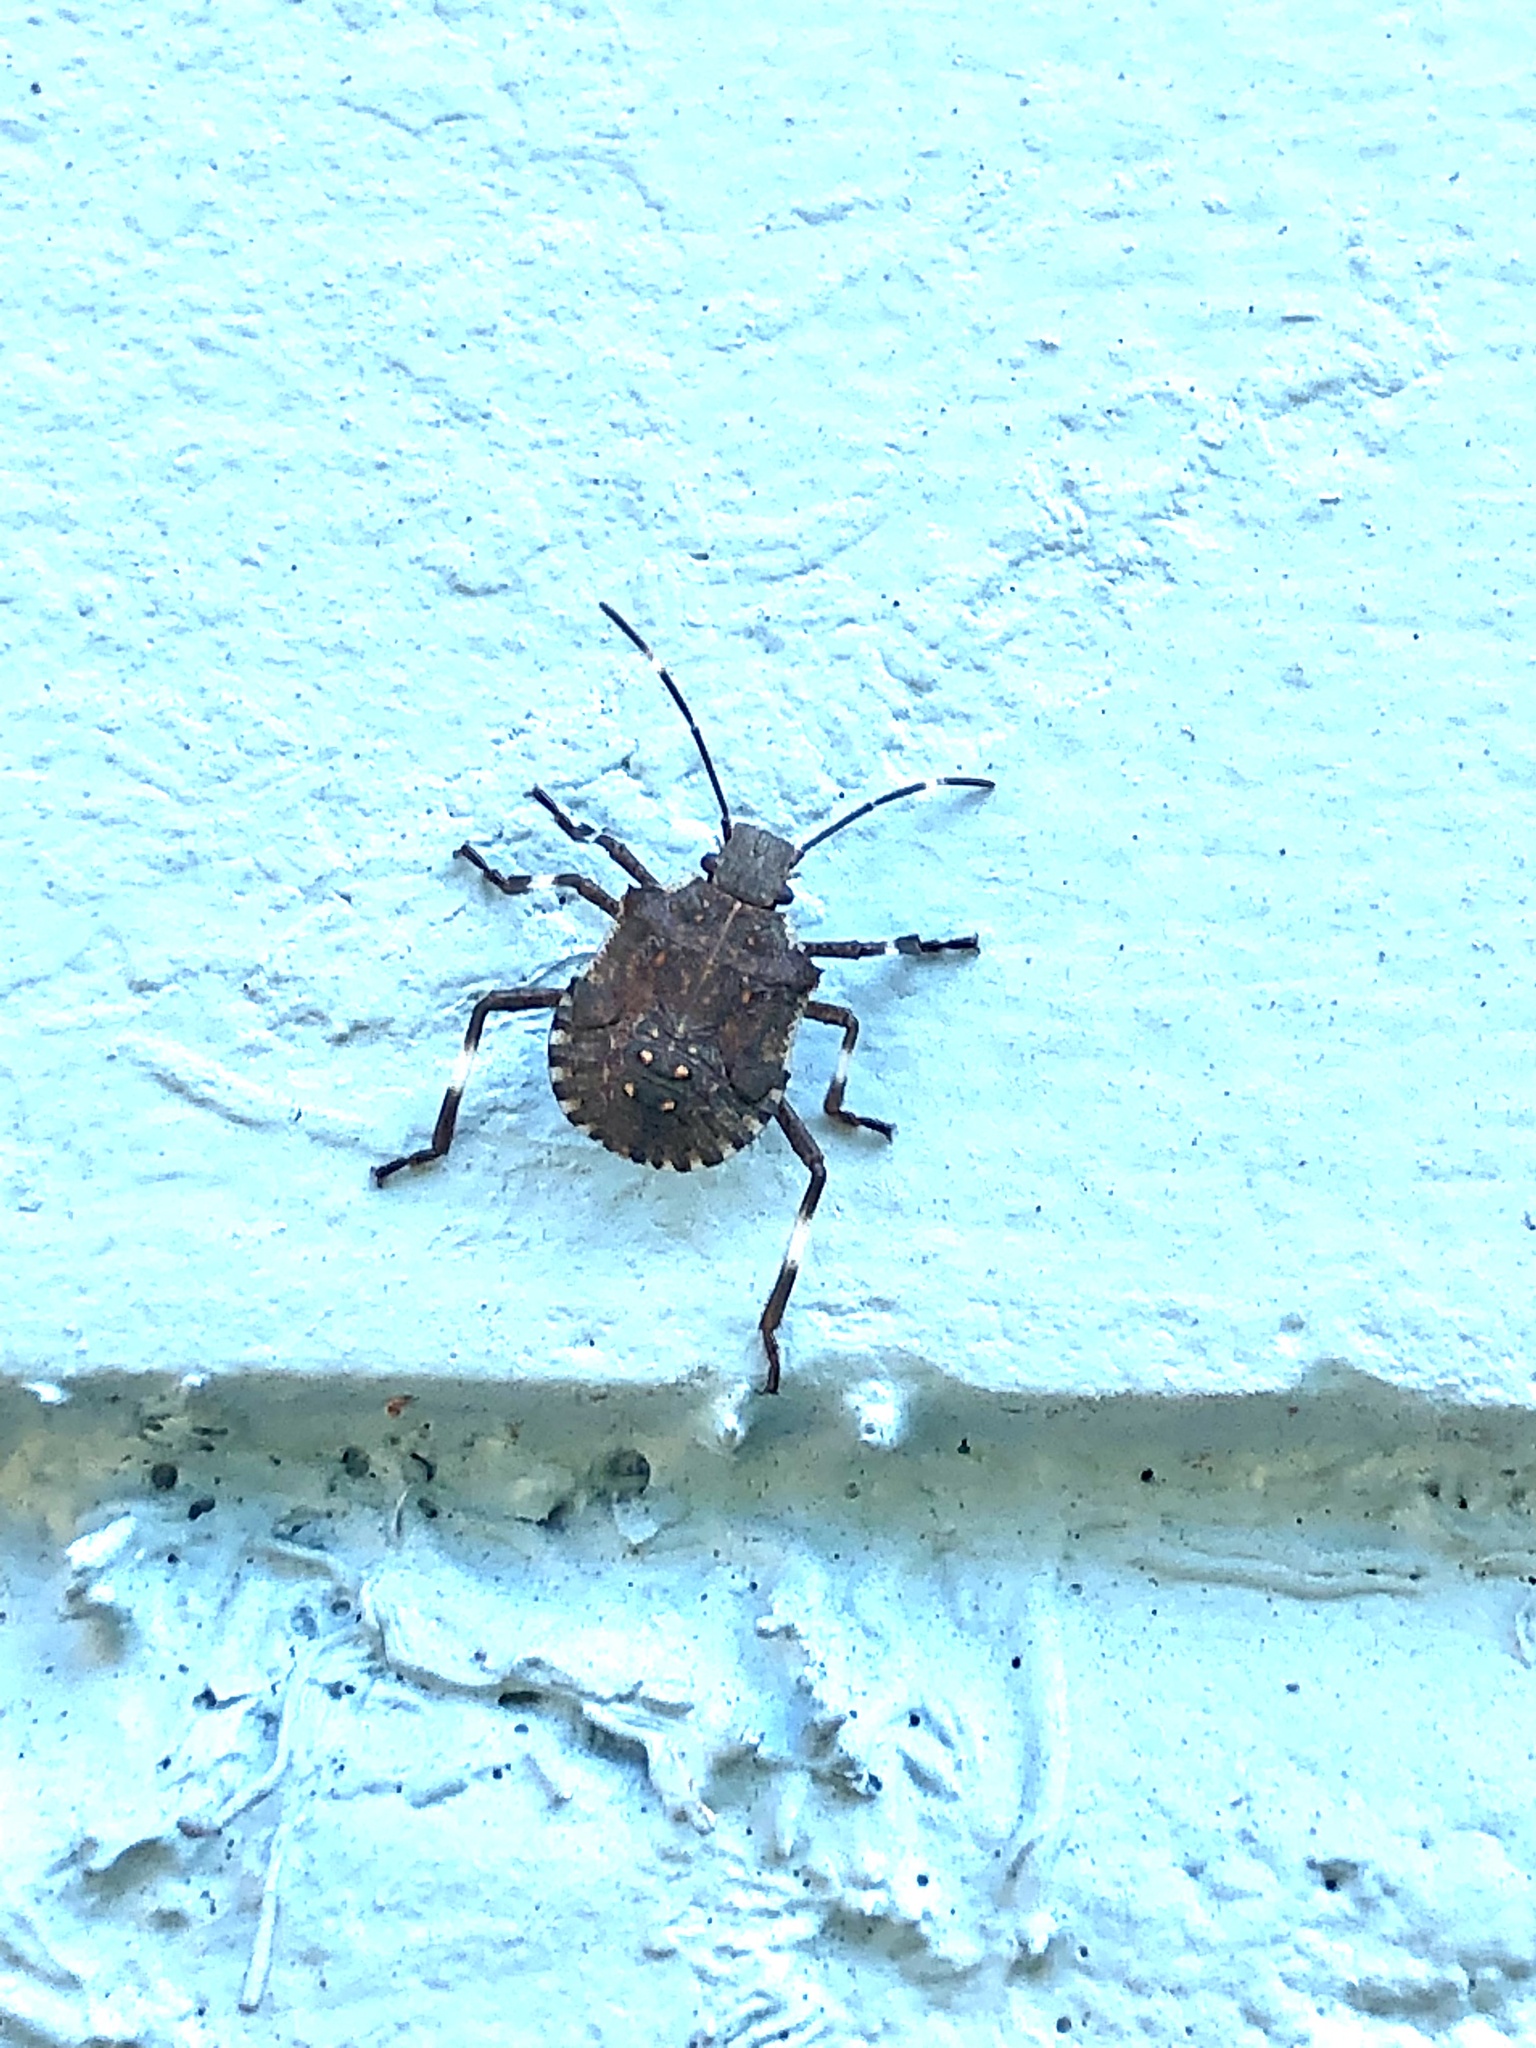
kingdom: Animalia
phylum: Arthropoda
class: Insecta
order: Hemiptera
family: Pentatomidae
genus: Halyomorpha
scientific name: Halyomorpha halys
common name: Brown marmorated stink bug
